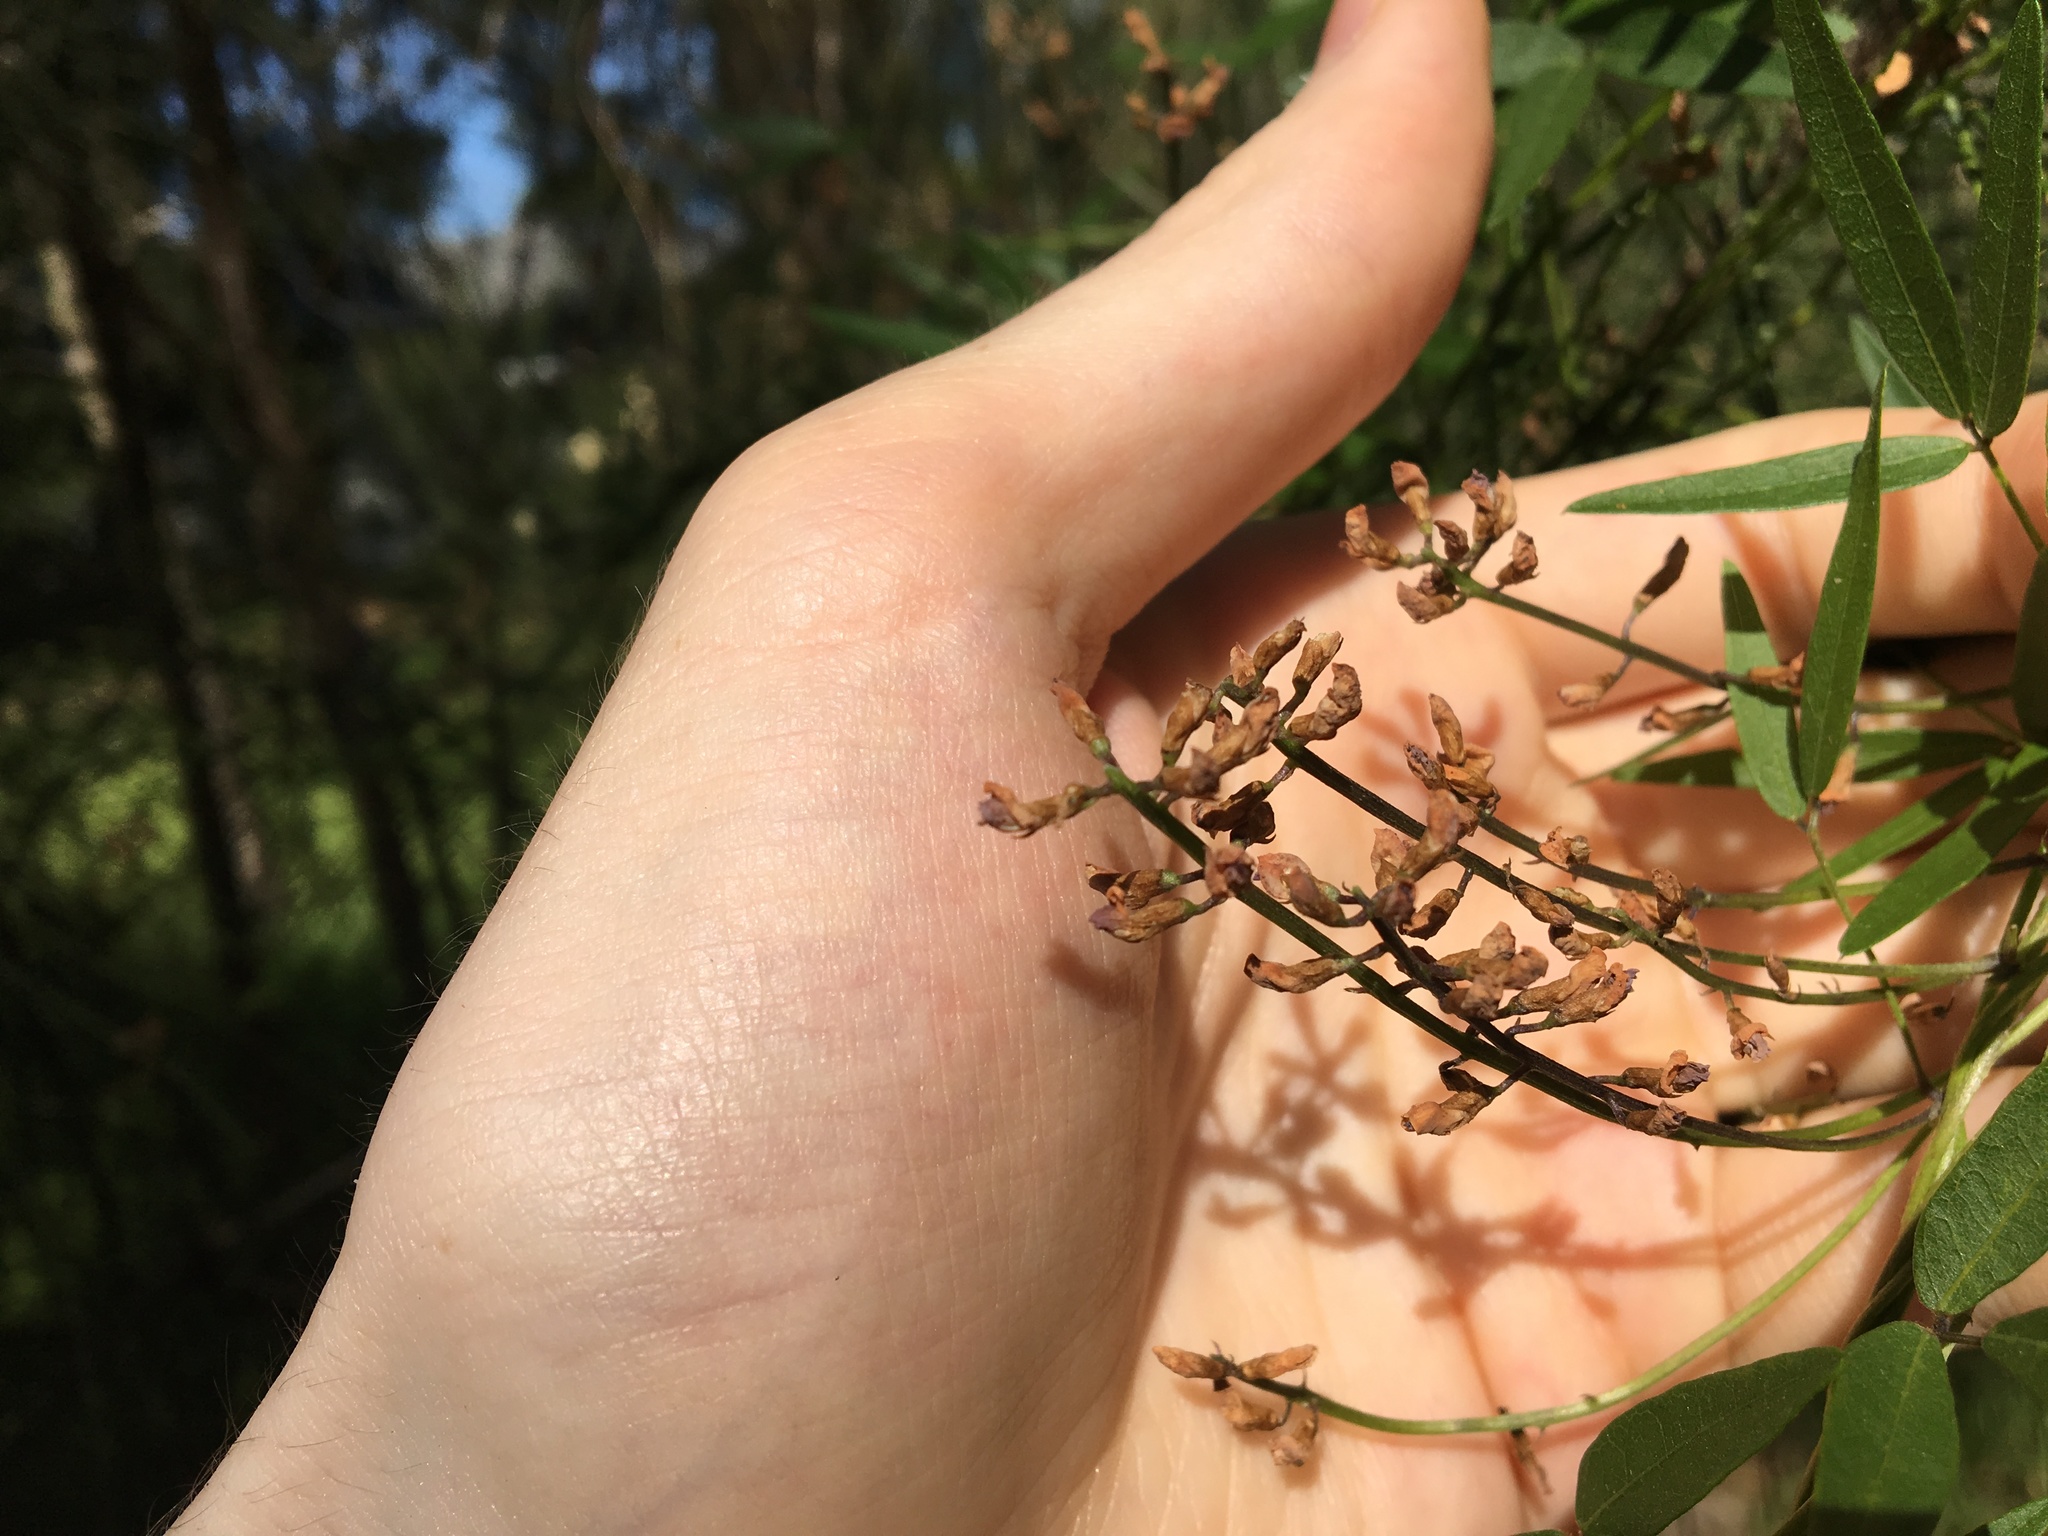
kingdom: Plantae
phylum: Tracheophyta
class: Magnoliopsida
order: Fabales
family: Fabaceae
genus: Glycine
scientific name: Glycine clandestina
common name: Twining glycine
